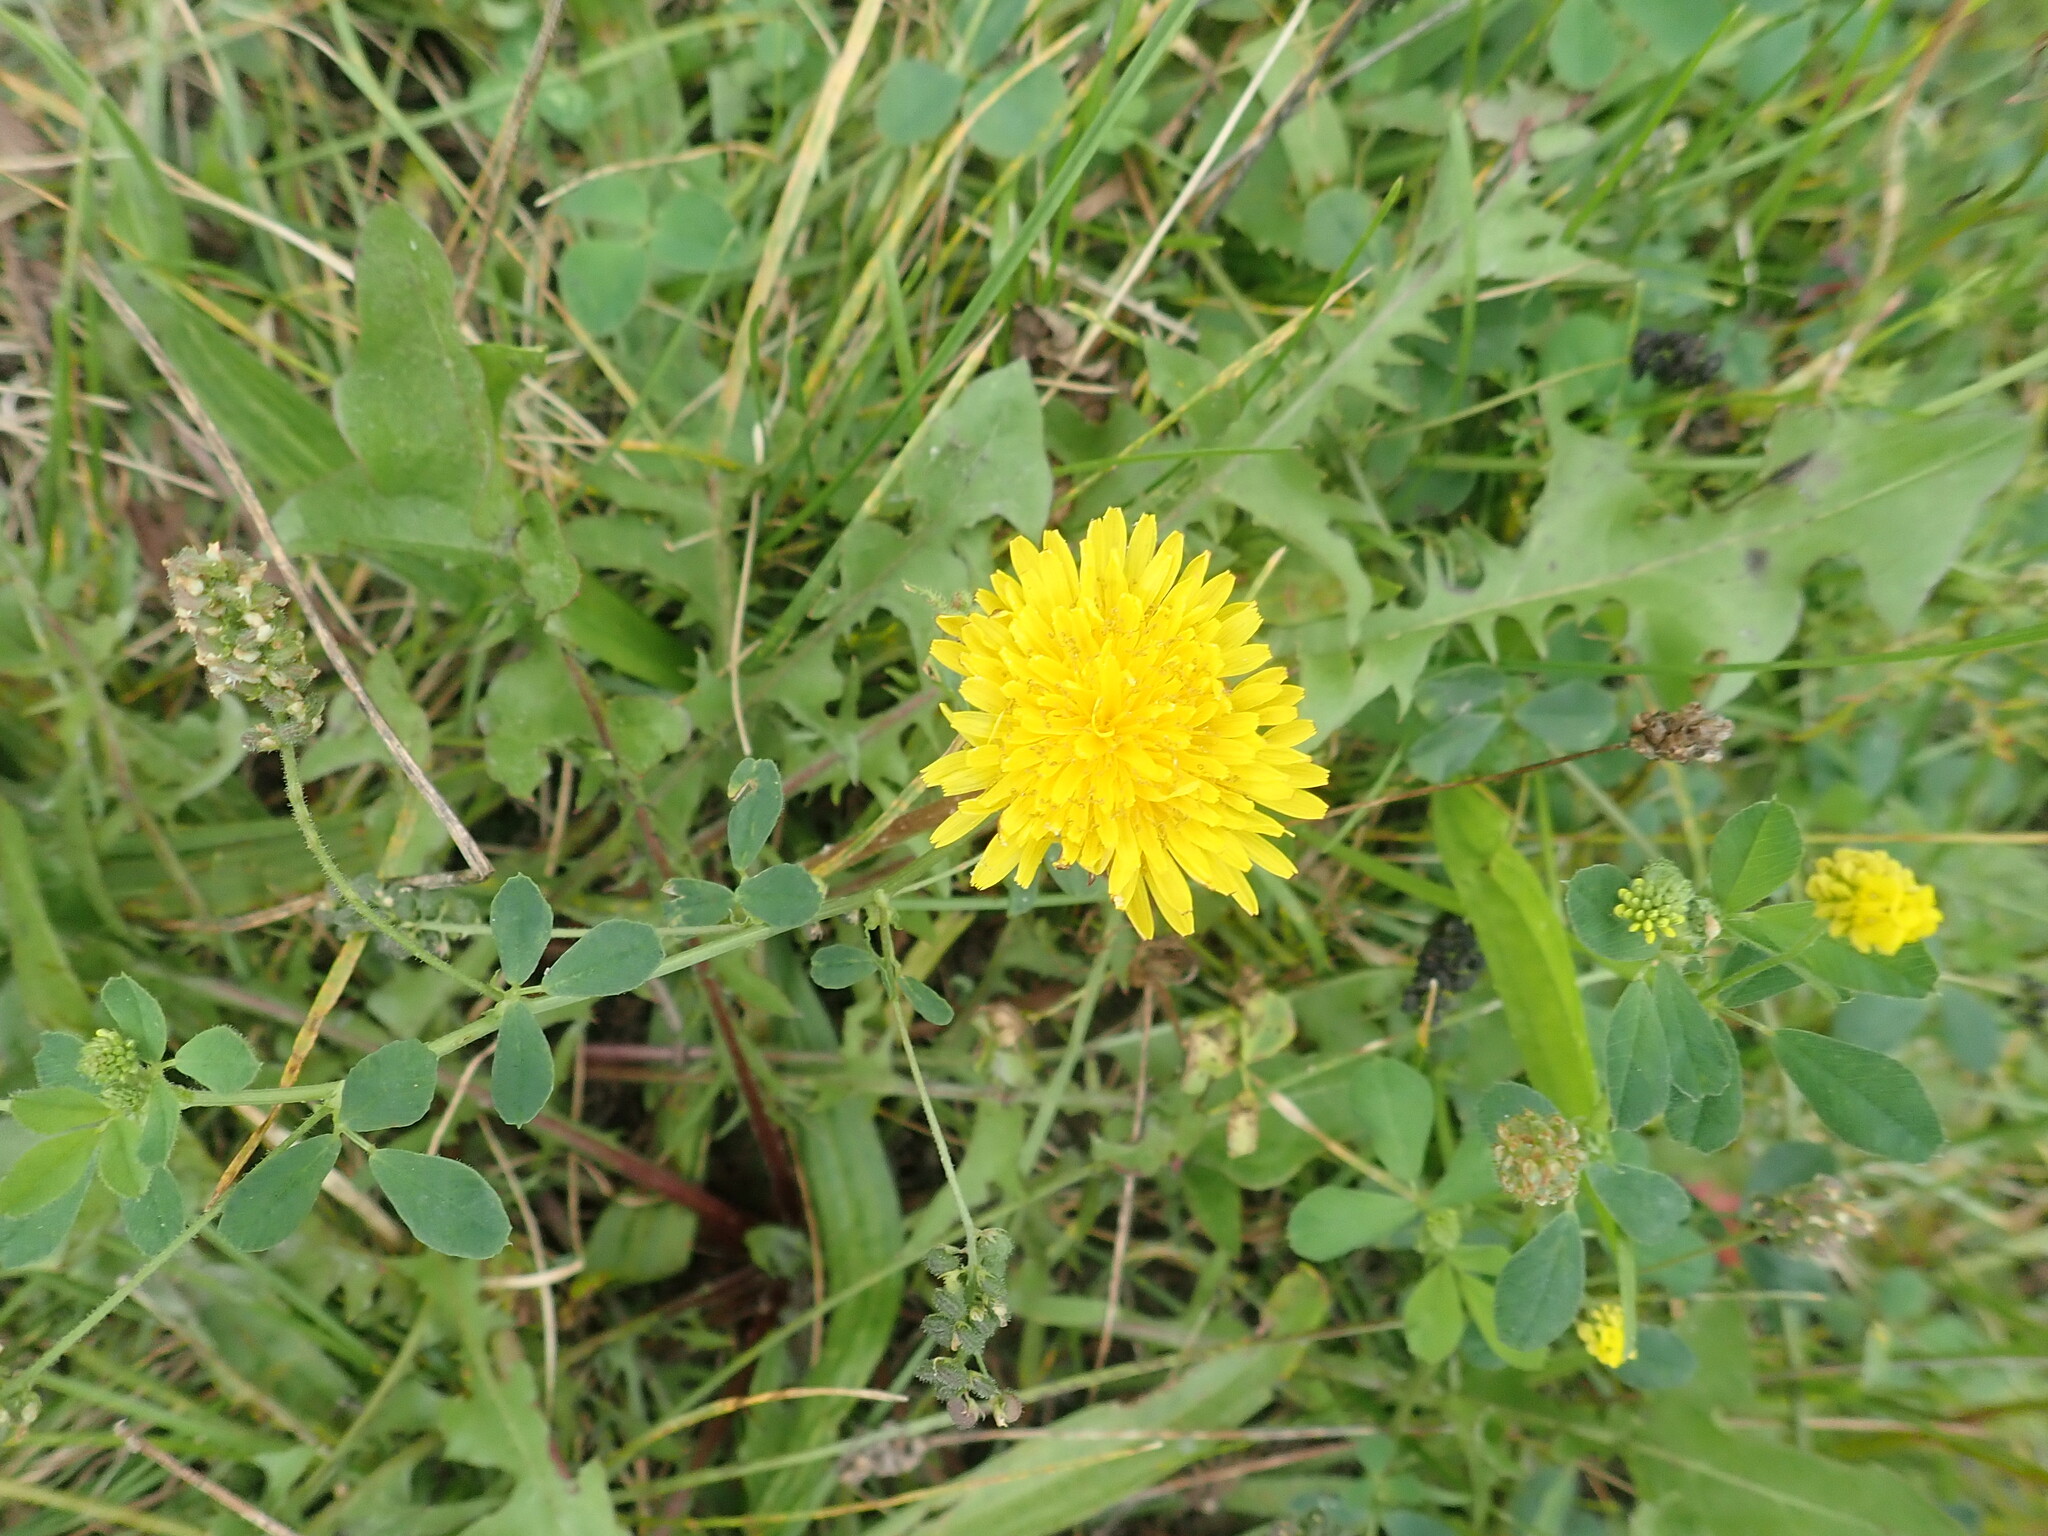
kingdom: Plantae
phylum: Tracheophyta
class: Magnoliopsida
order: Asterales
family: Asteraceae
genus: Taraxacum
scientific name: Taraxacum officinale
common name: Common dandelion
